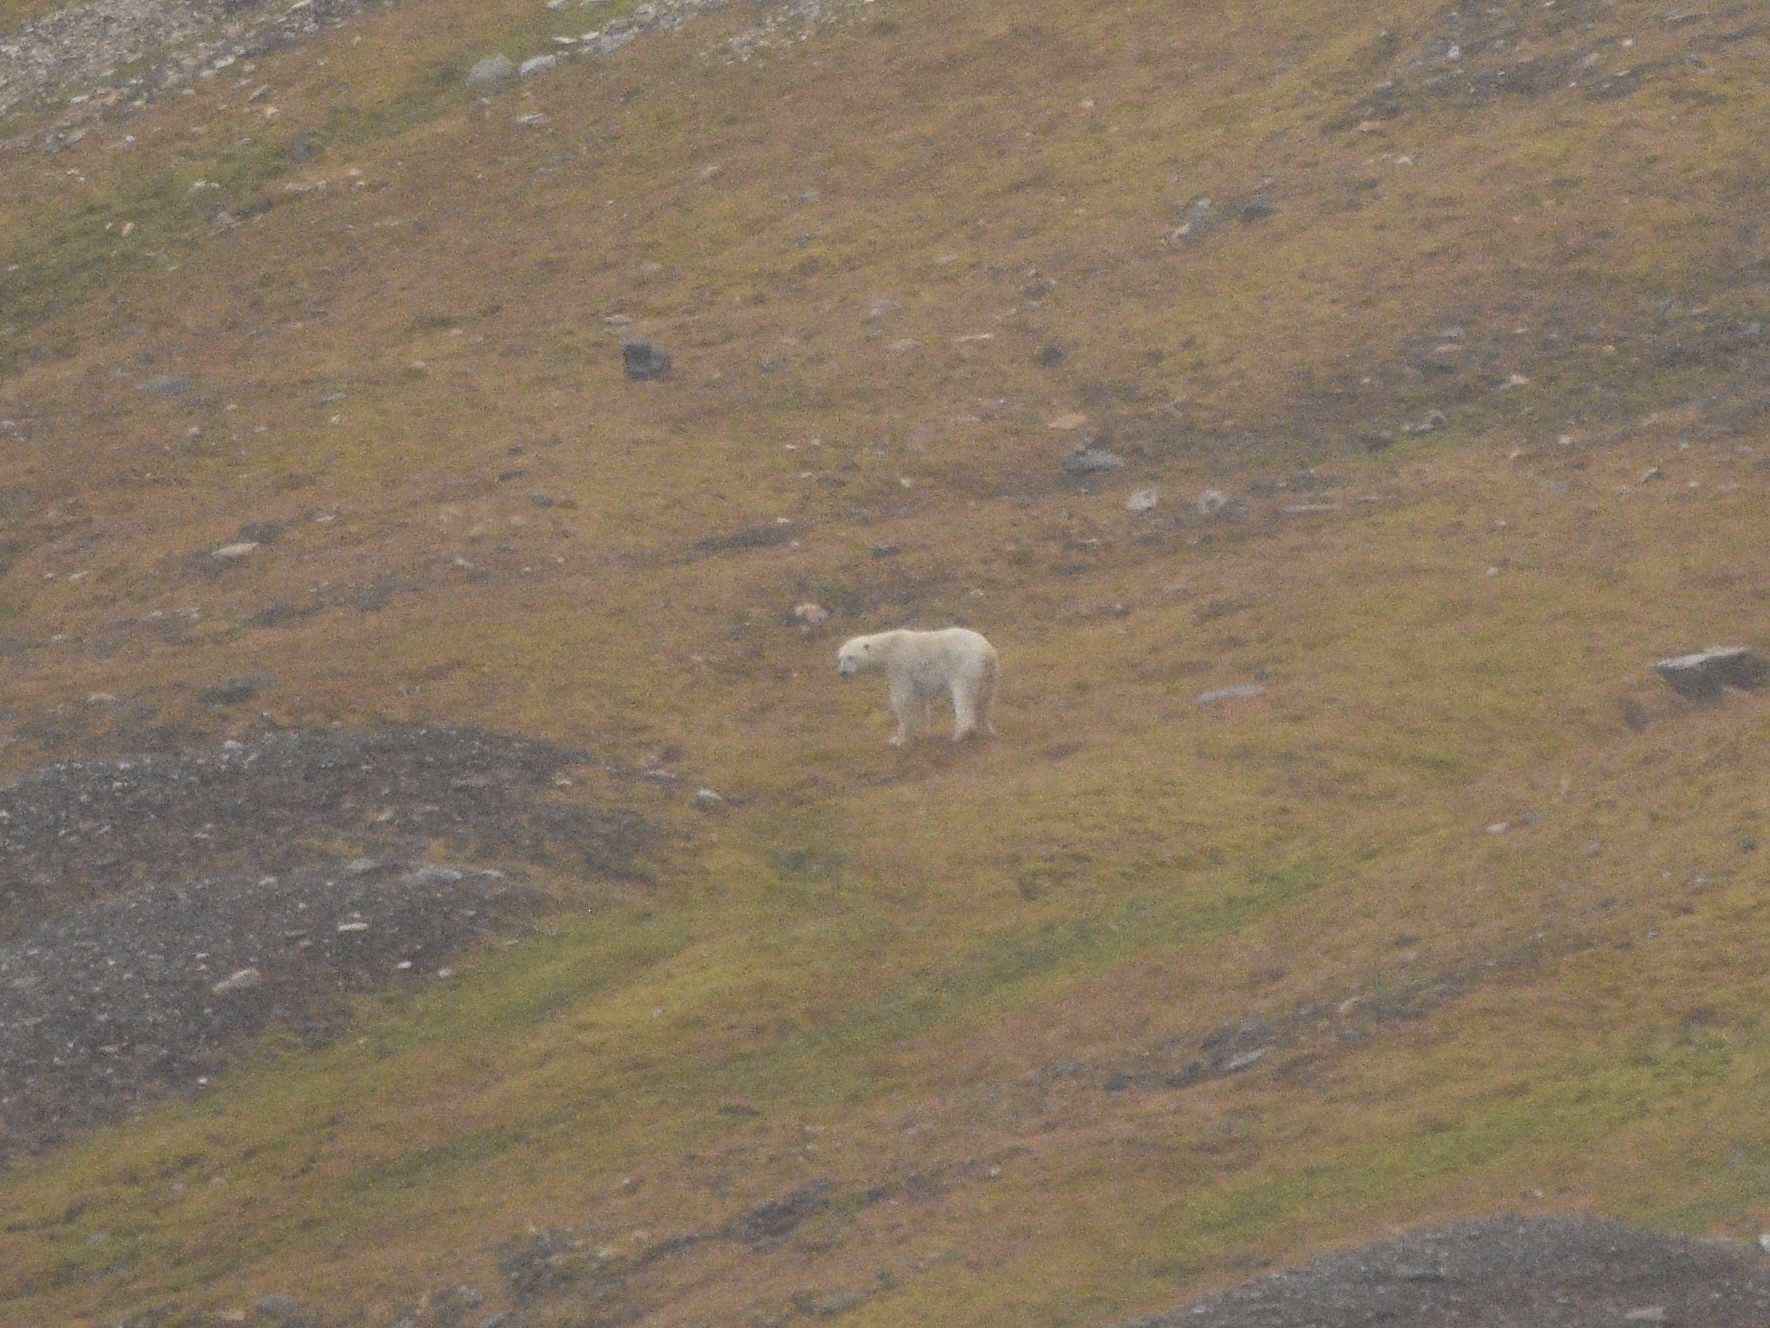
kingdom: Animalia
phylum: Chordata
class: Mammalia
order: Carnivora
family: Ursidae
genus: Ursus
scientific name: Ursus maritimus
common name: Polar bear
